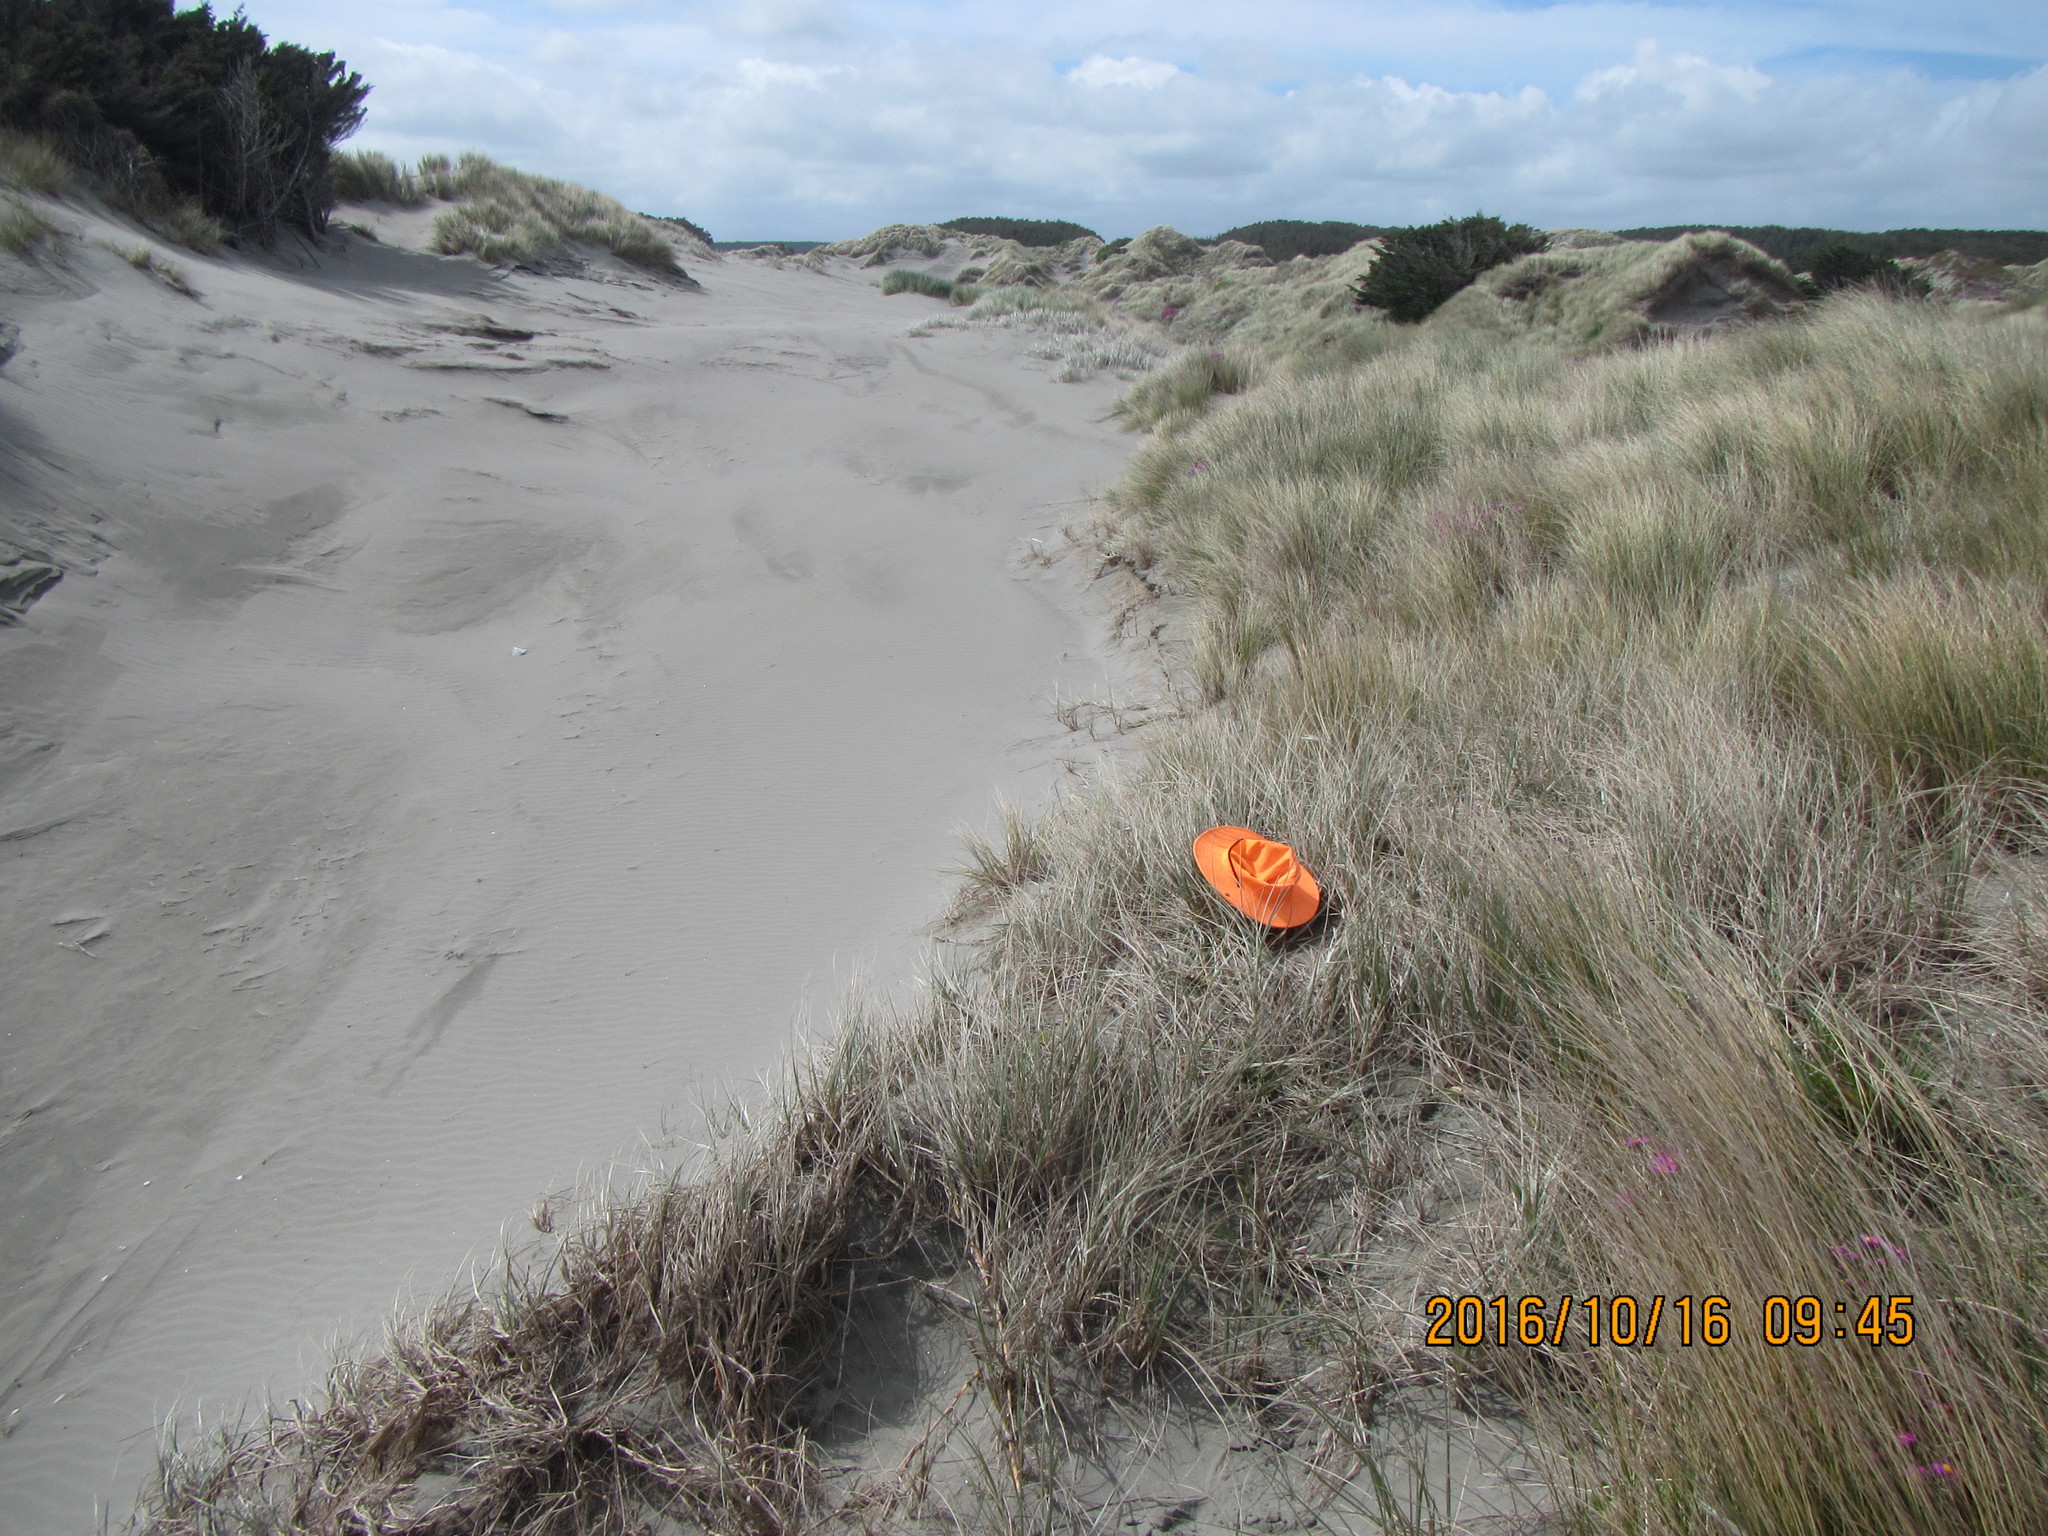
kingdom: Animalia
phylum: Arthropoda
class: Arachnida
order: Araneae
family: Theridiidae
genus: Latrodectus
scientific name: Latrodectus katipo
